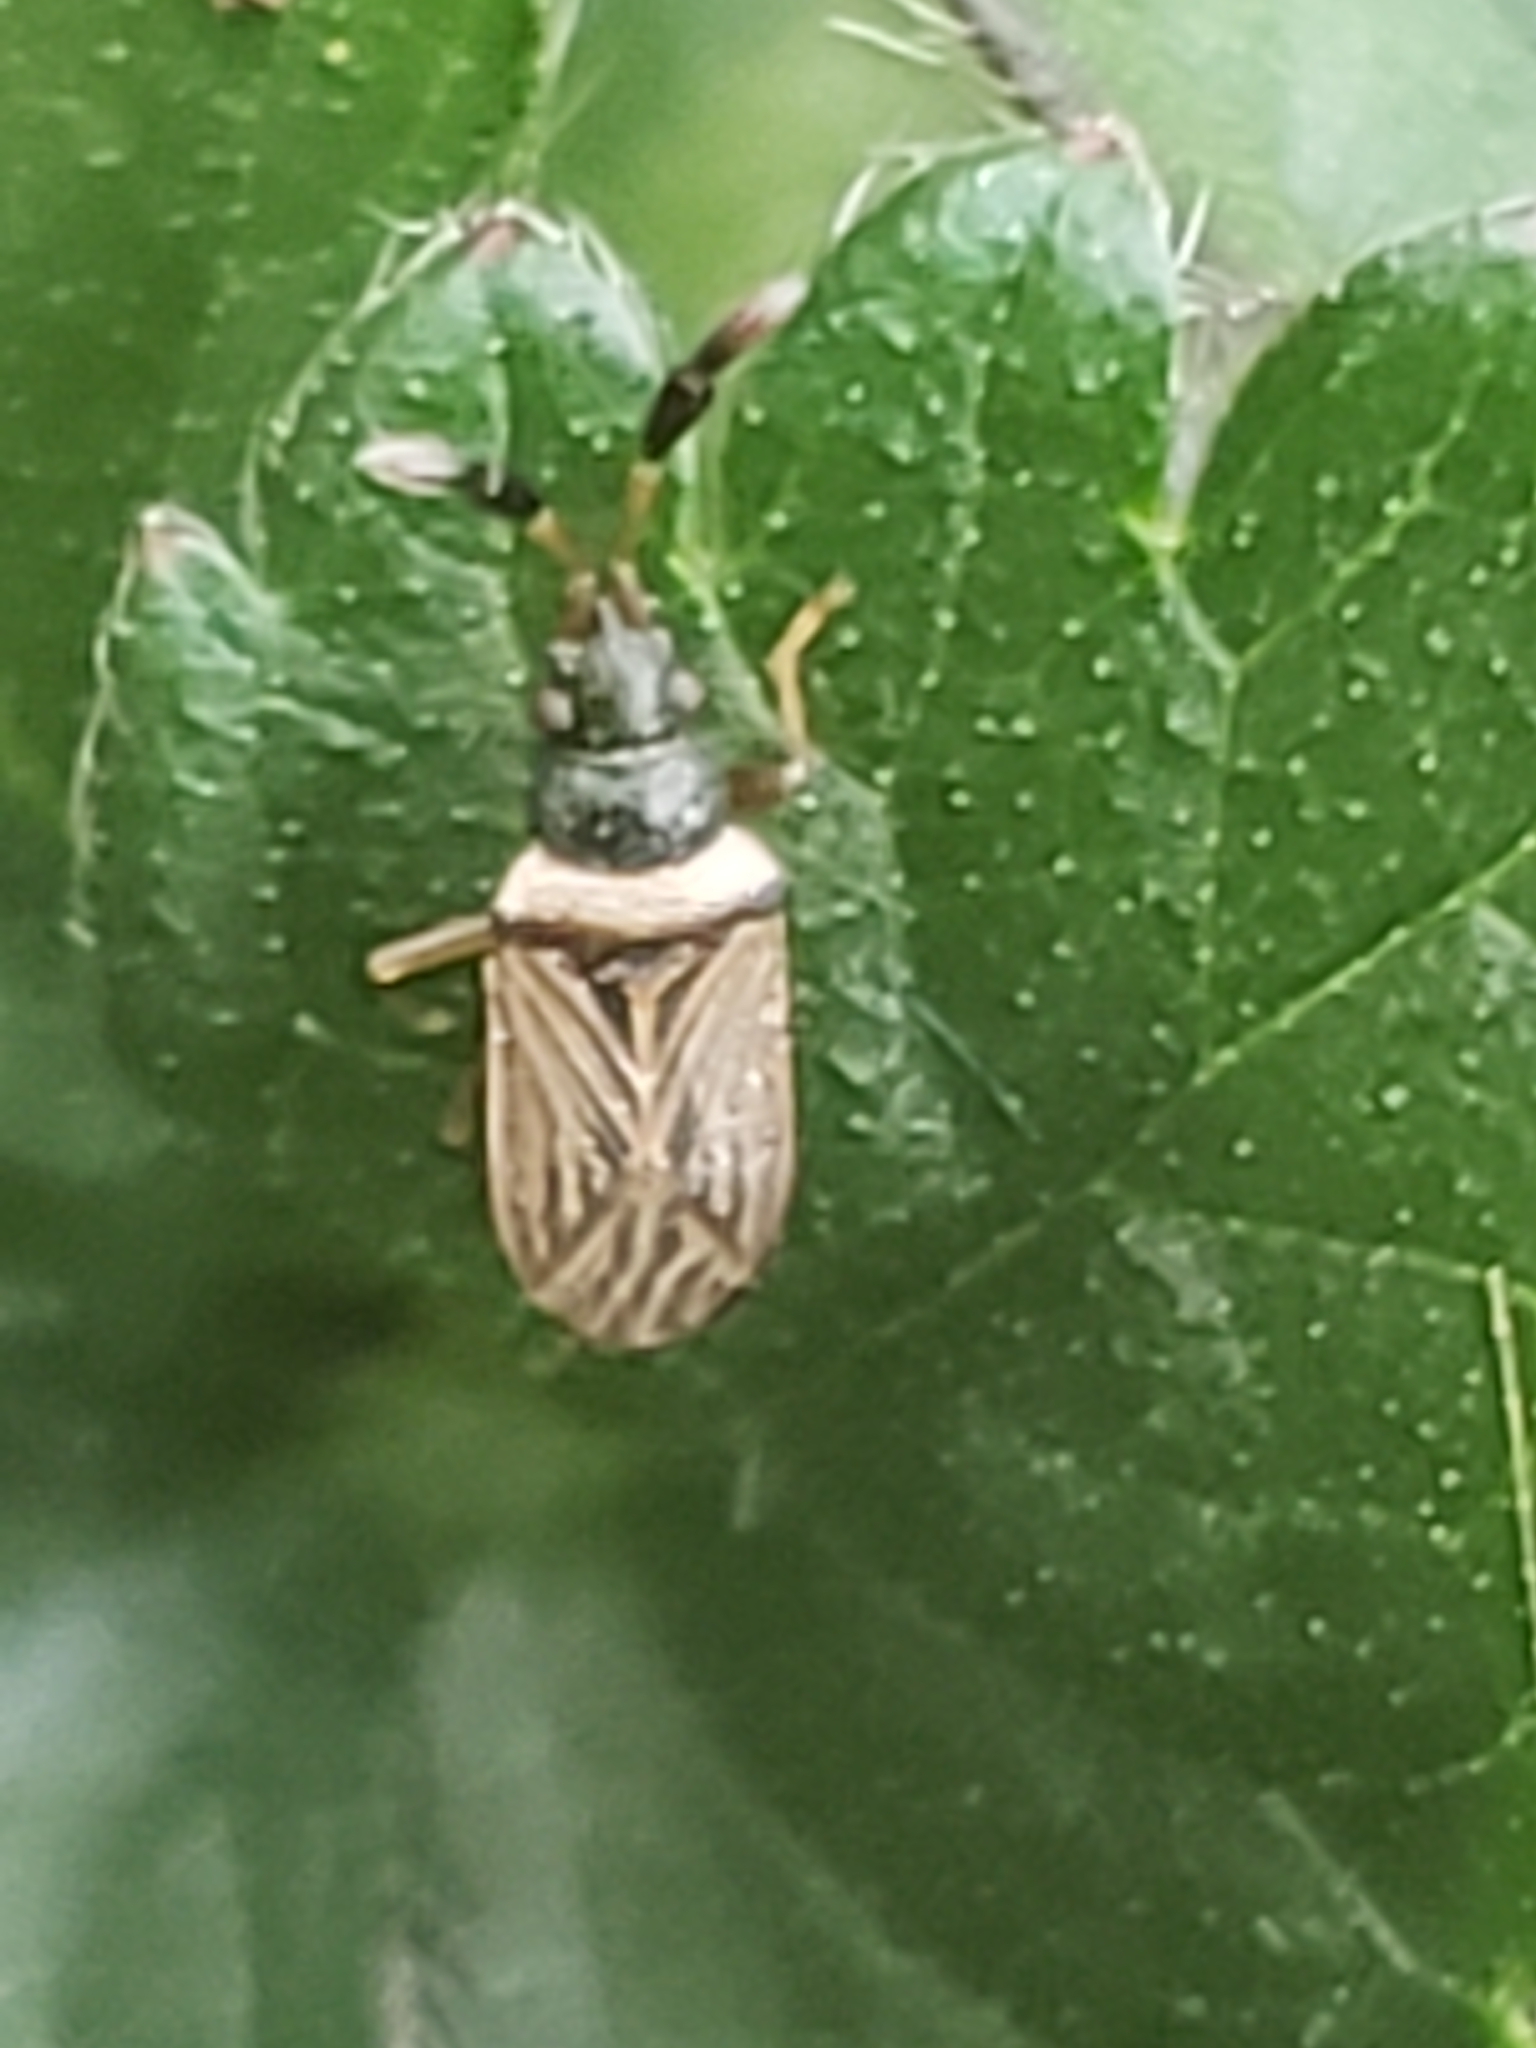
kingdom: Animalia
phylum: Arthropoda
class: Insecta
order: Hemiptera
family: Rhyparochromidae
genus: Ptochiomera
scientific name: Ptochiomera nodosa
